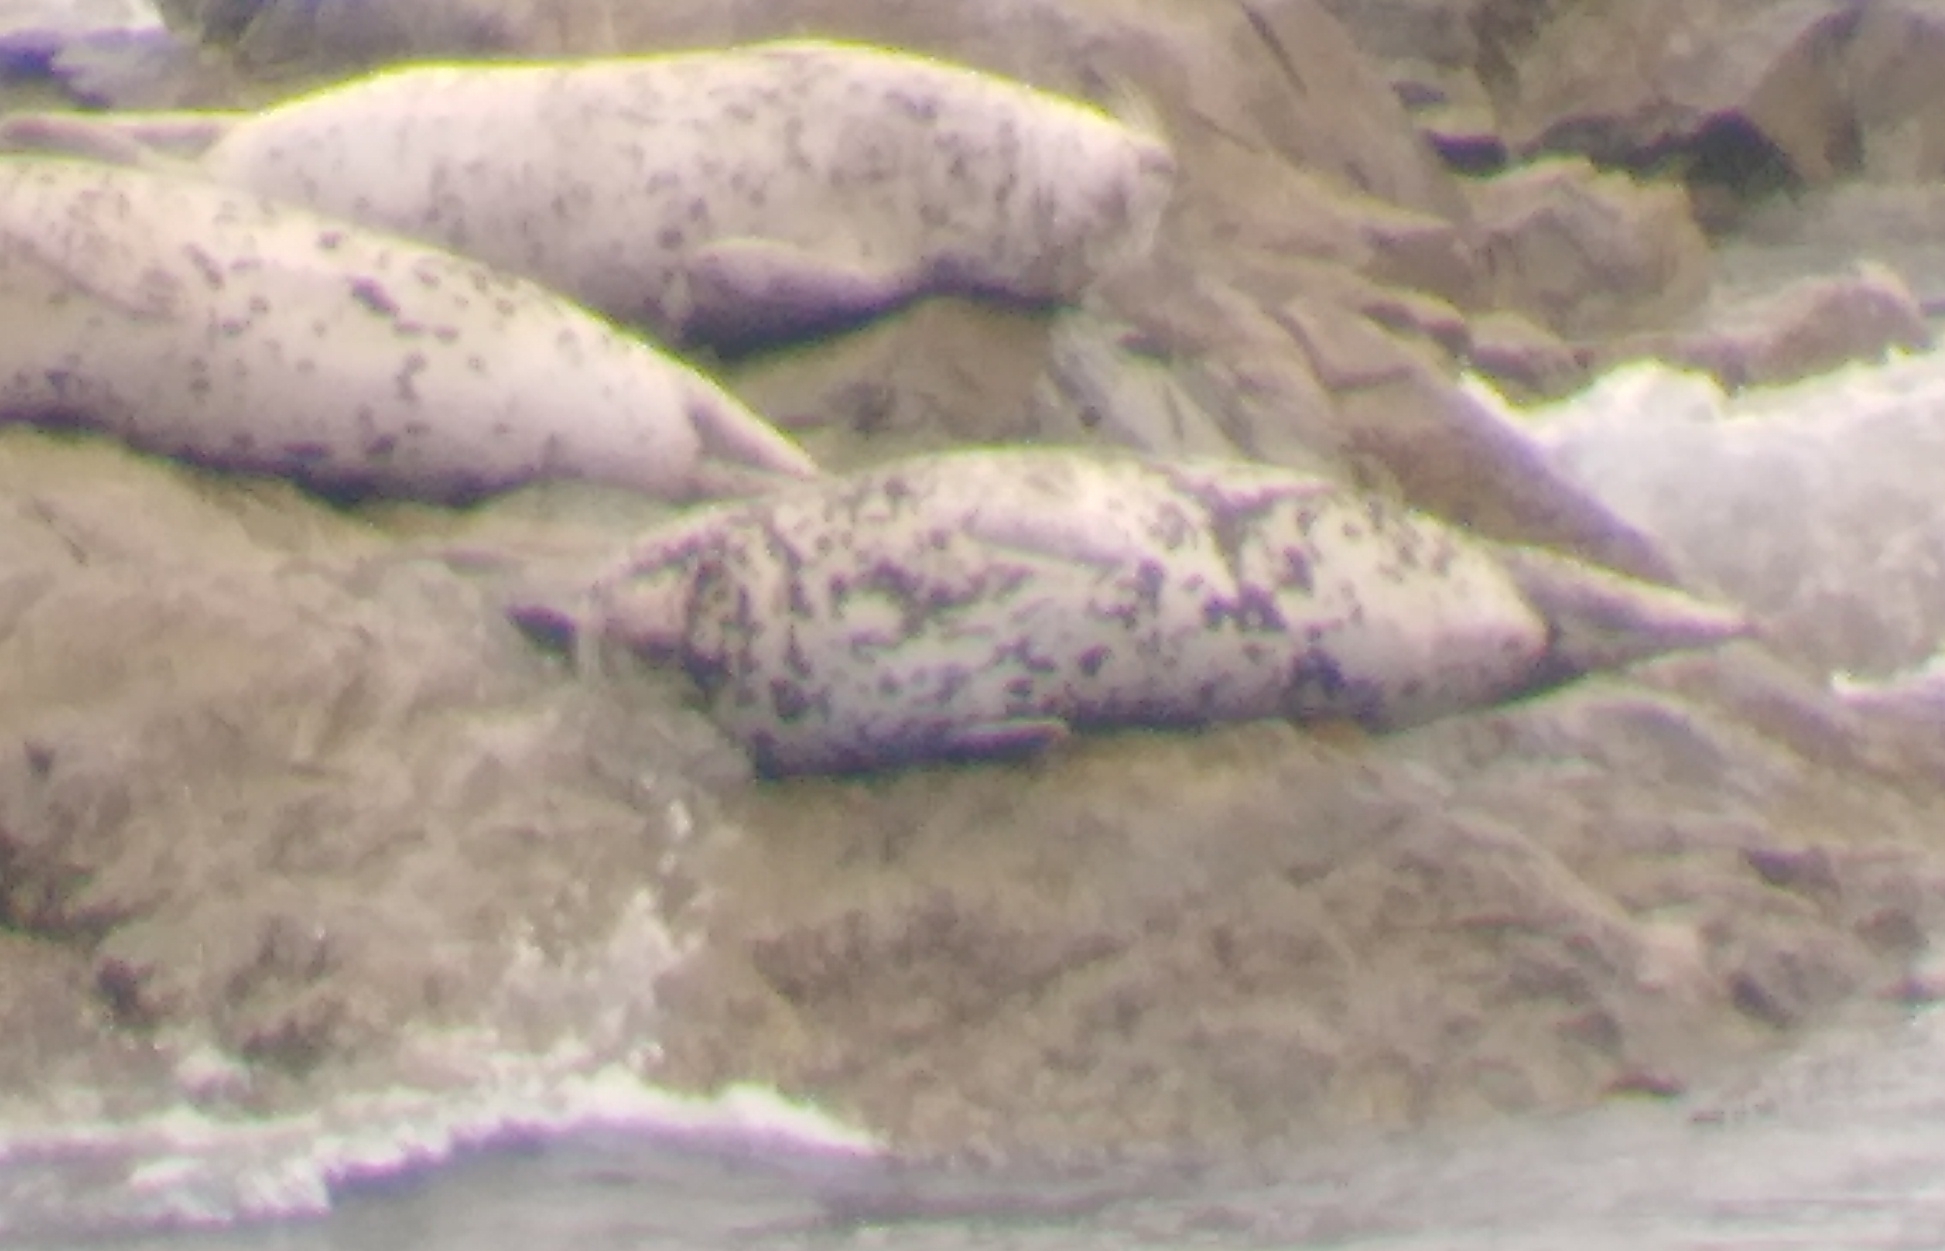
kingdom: Animalia
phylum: Chordata
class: Mammalia
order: Carnivora
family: Phocidae
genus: Phoca
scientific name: Phoca largha
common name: Spotted seal
